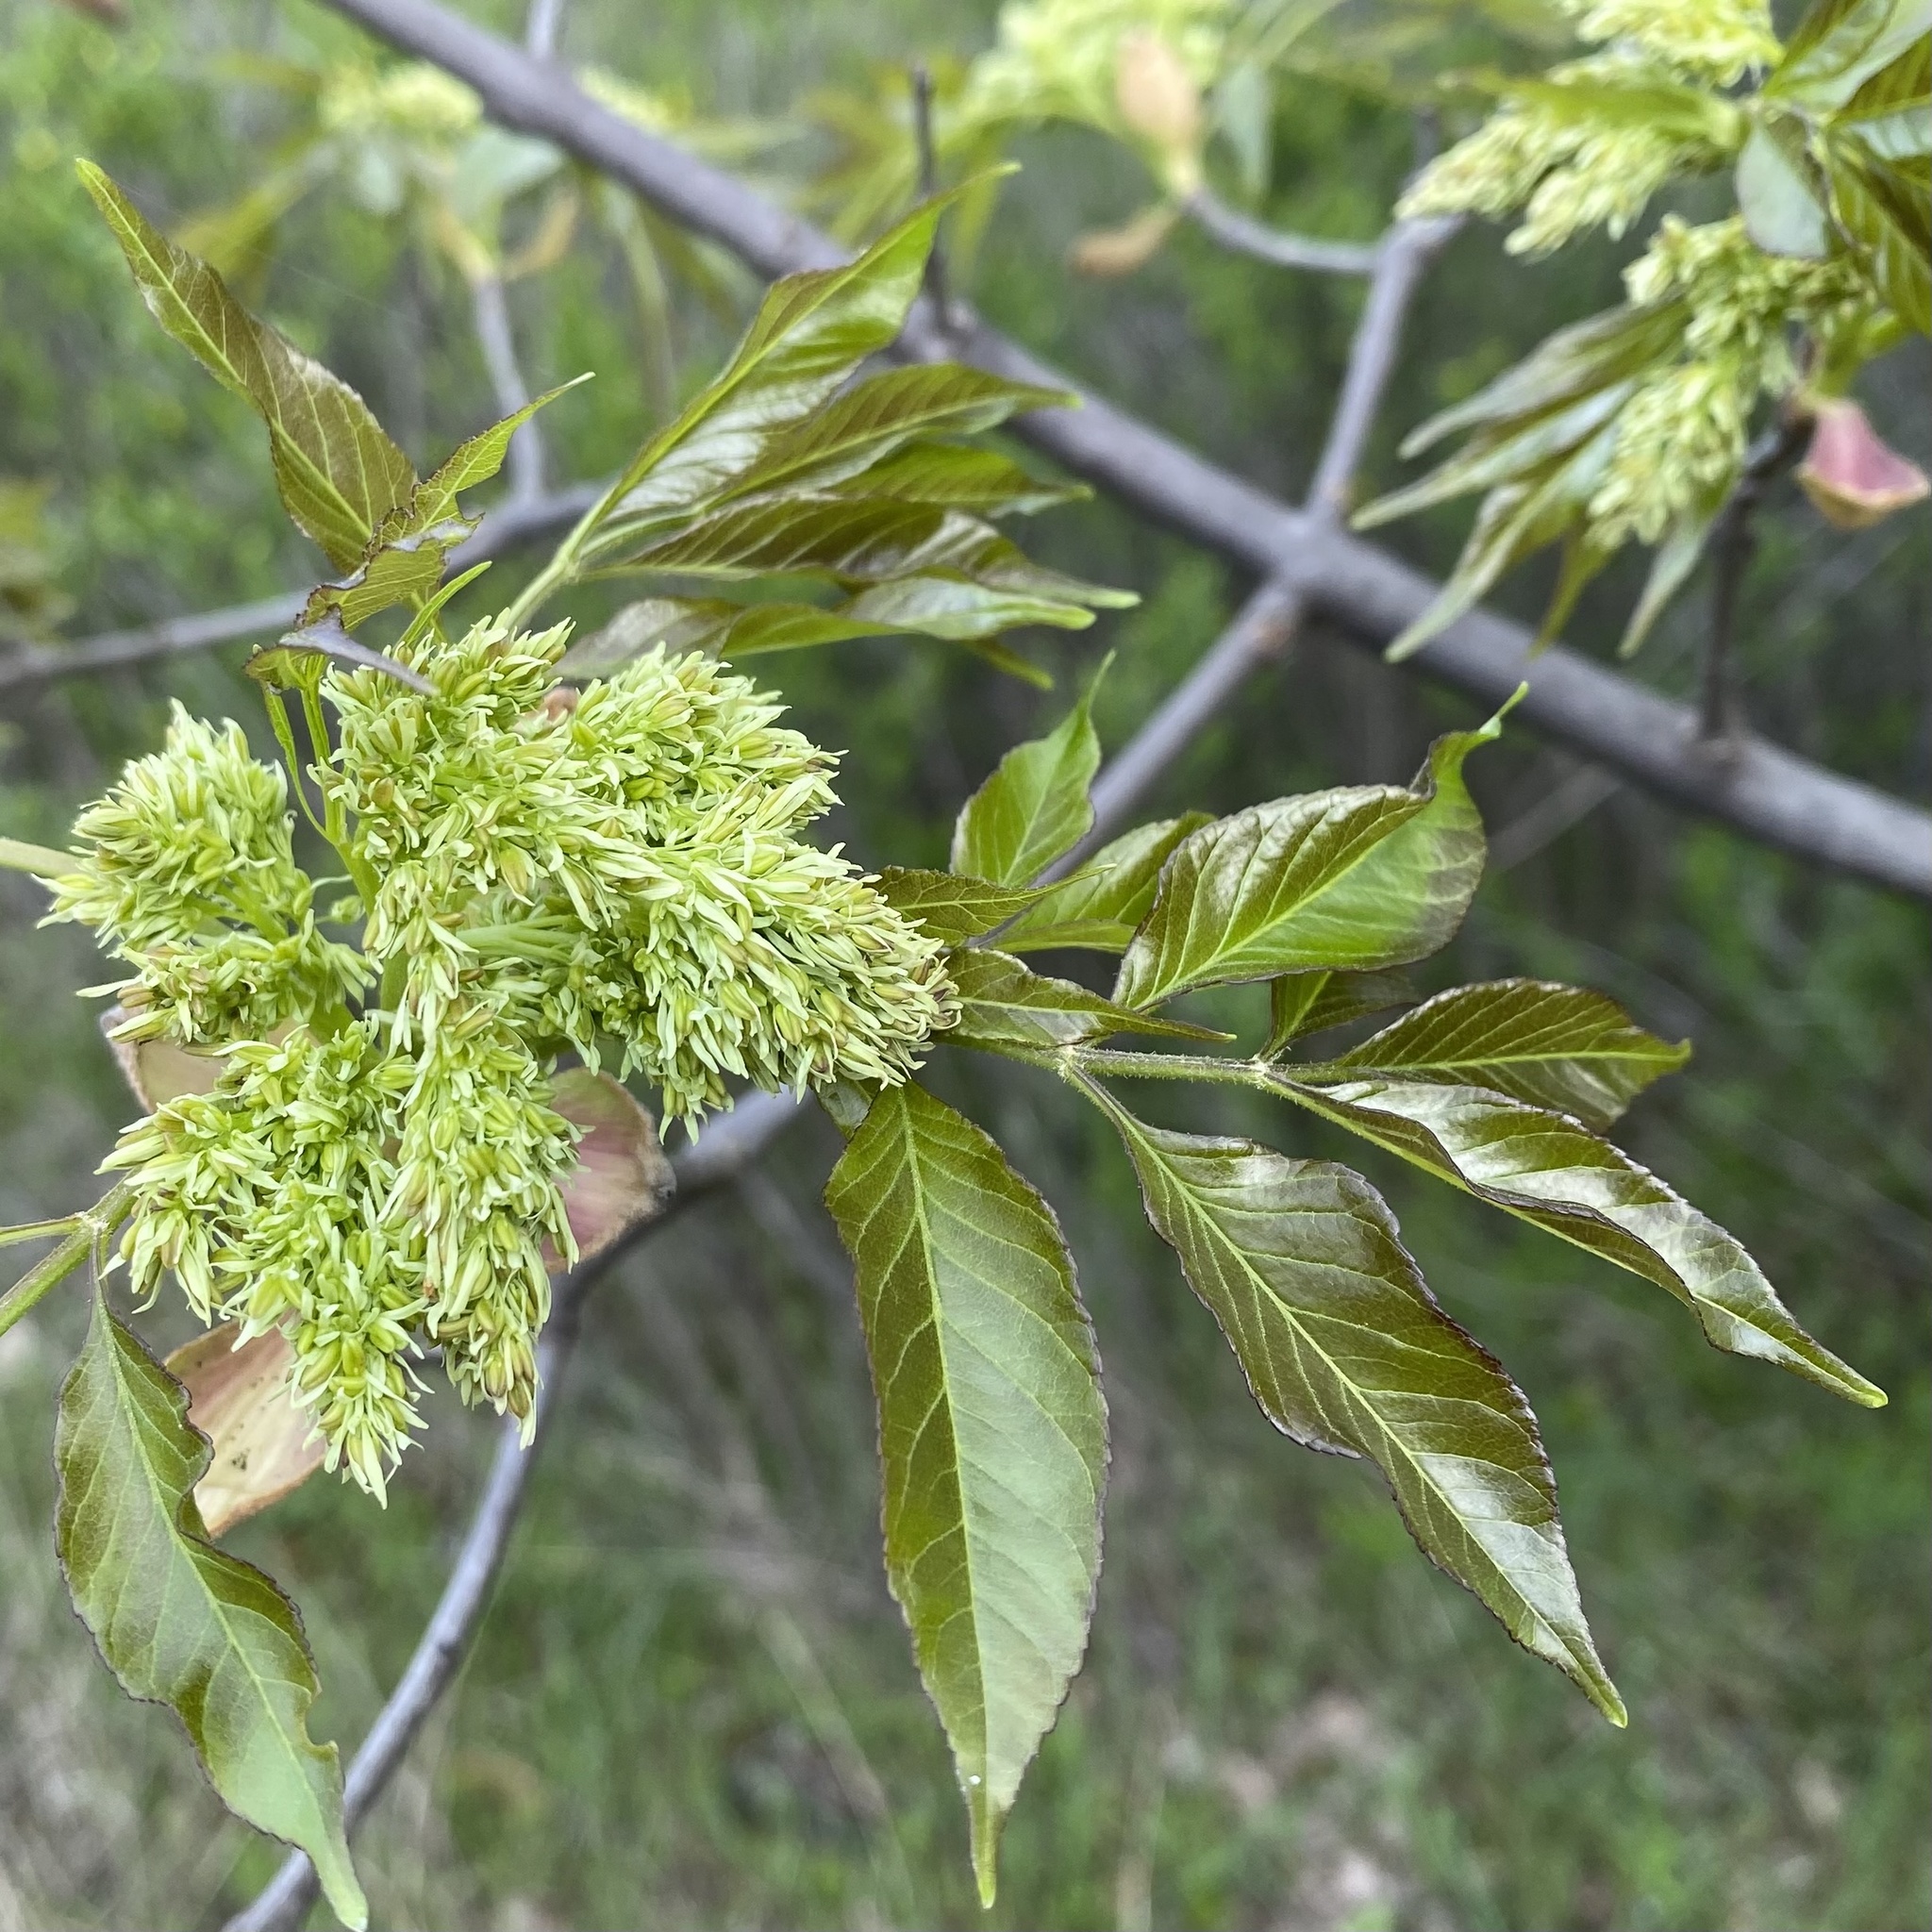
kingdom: Plantae
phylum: Tracheophyta
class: Magnoliopsida
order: Lamiales
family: Oleaceae
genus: Fraxinus
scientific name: Fraxinus ornus
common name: Manna ash
